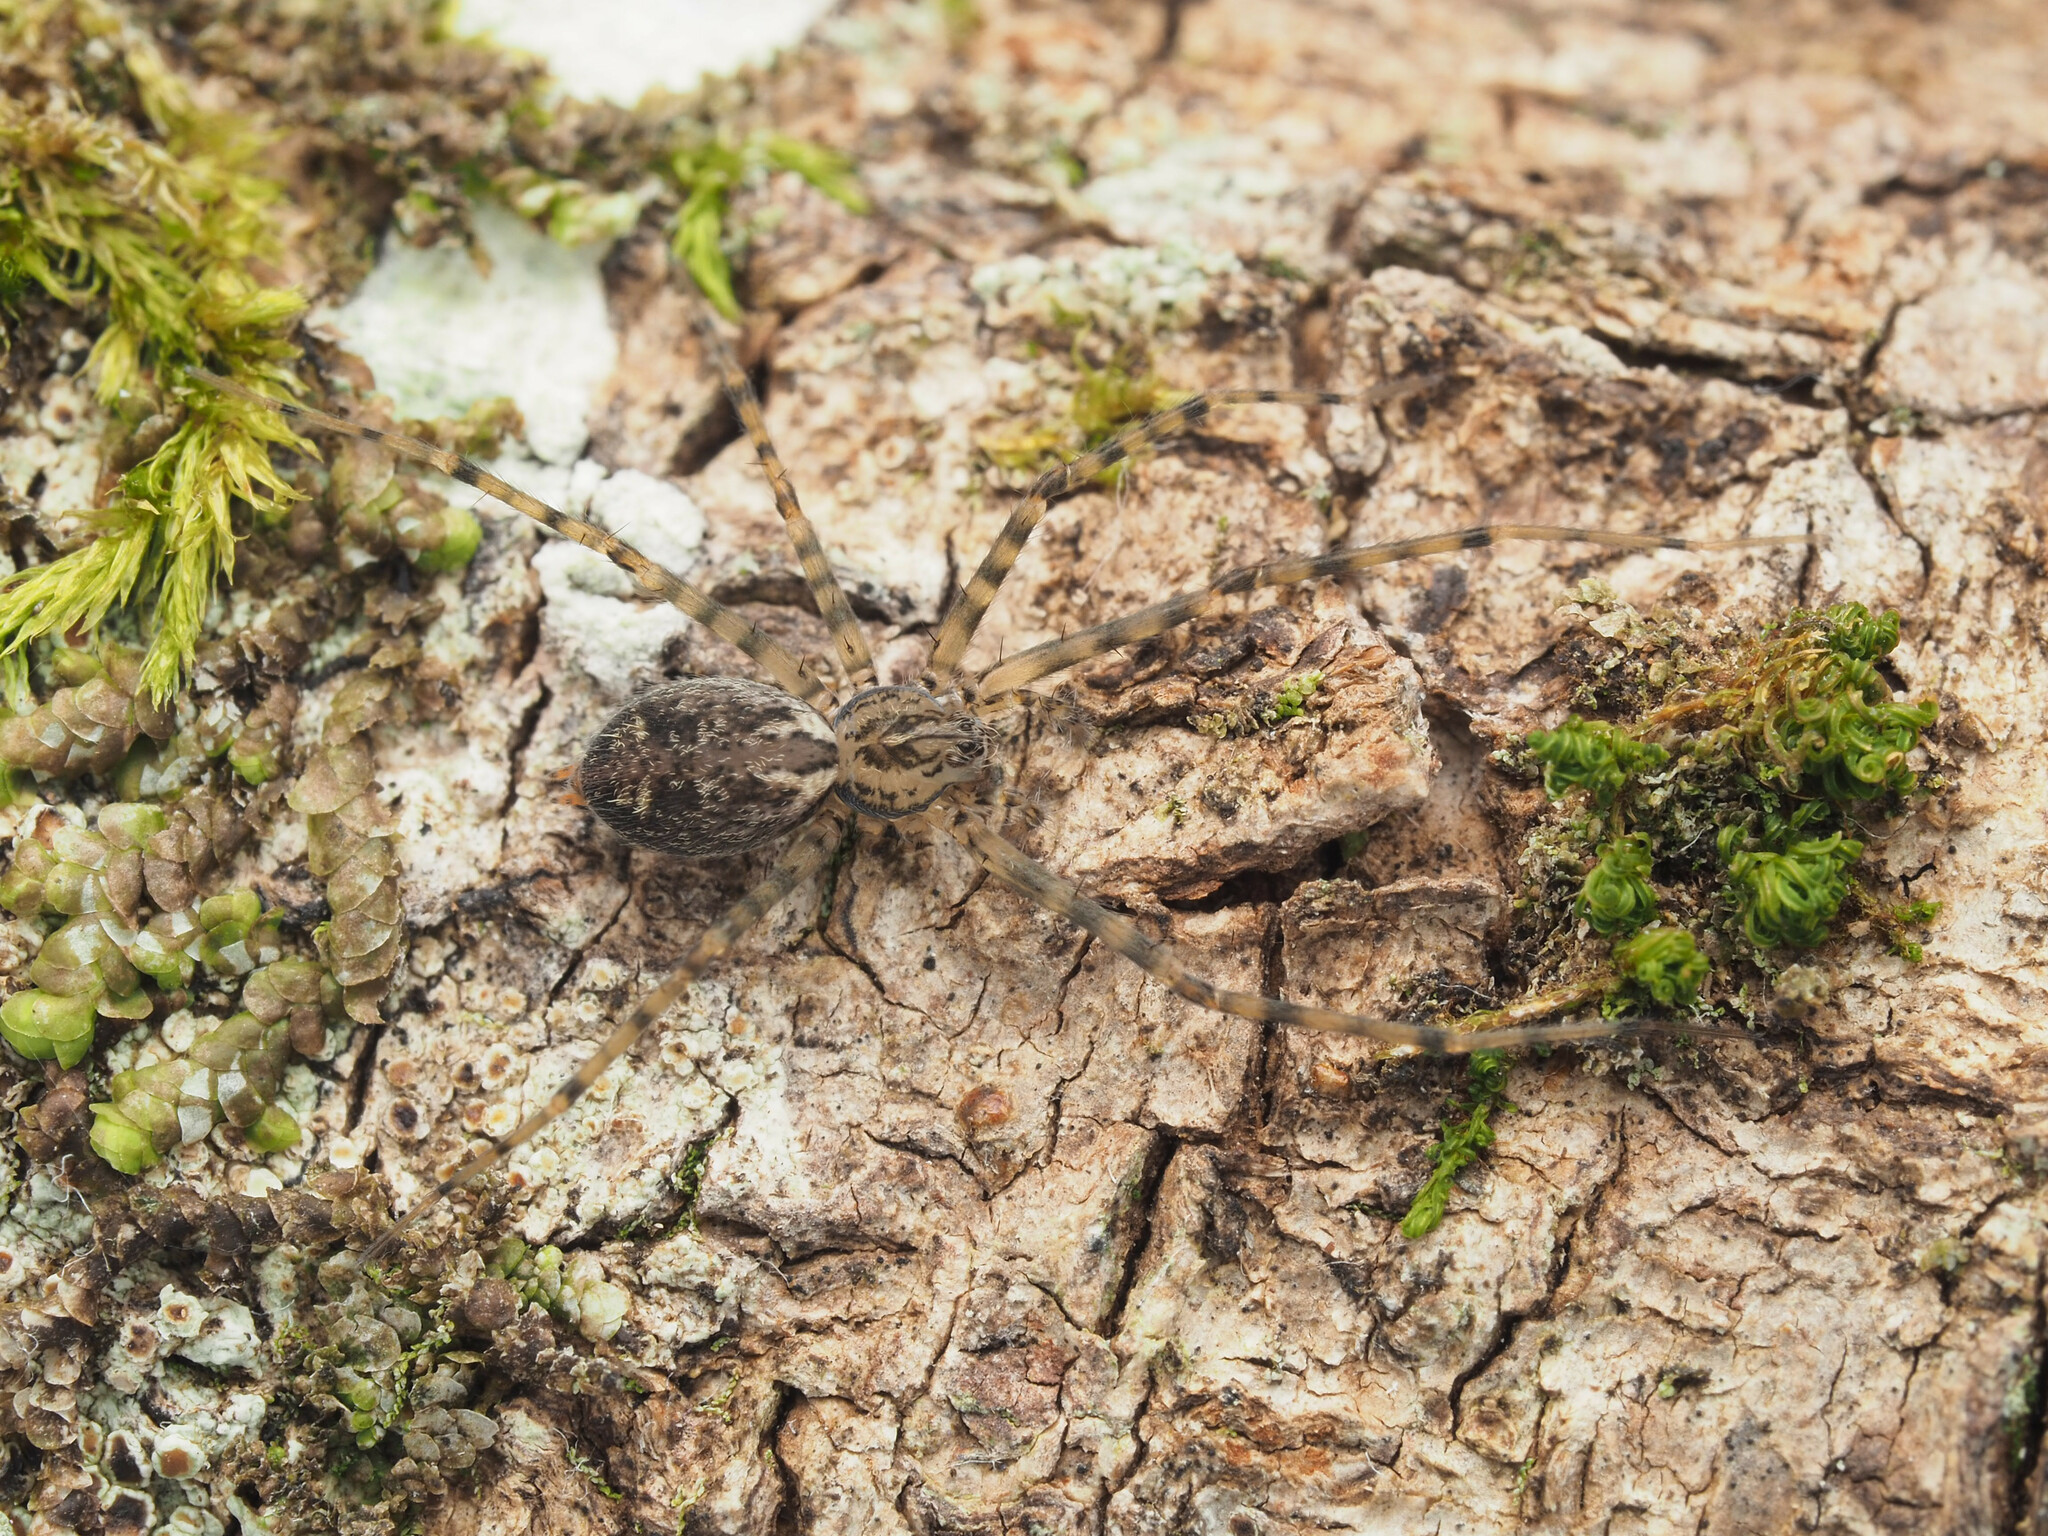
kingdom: Animalia
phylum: Arthropoda
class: Arachnida
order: Araneae
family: Stiphidiidae
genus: Stiphidion
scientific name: Stiphidion adornatum
